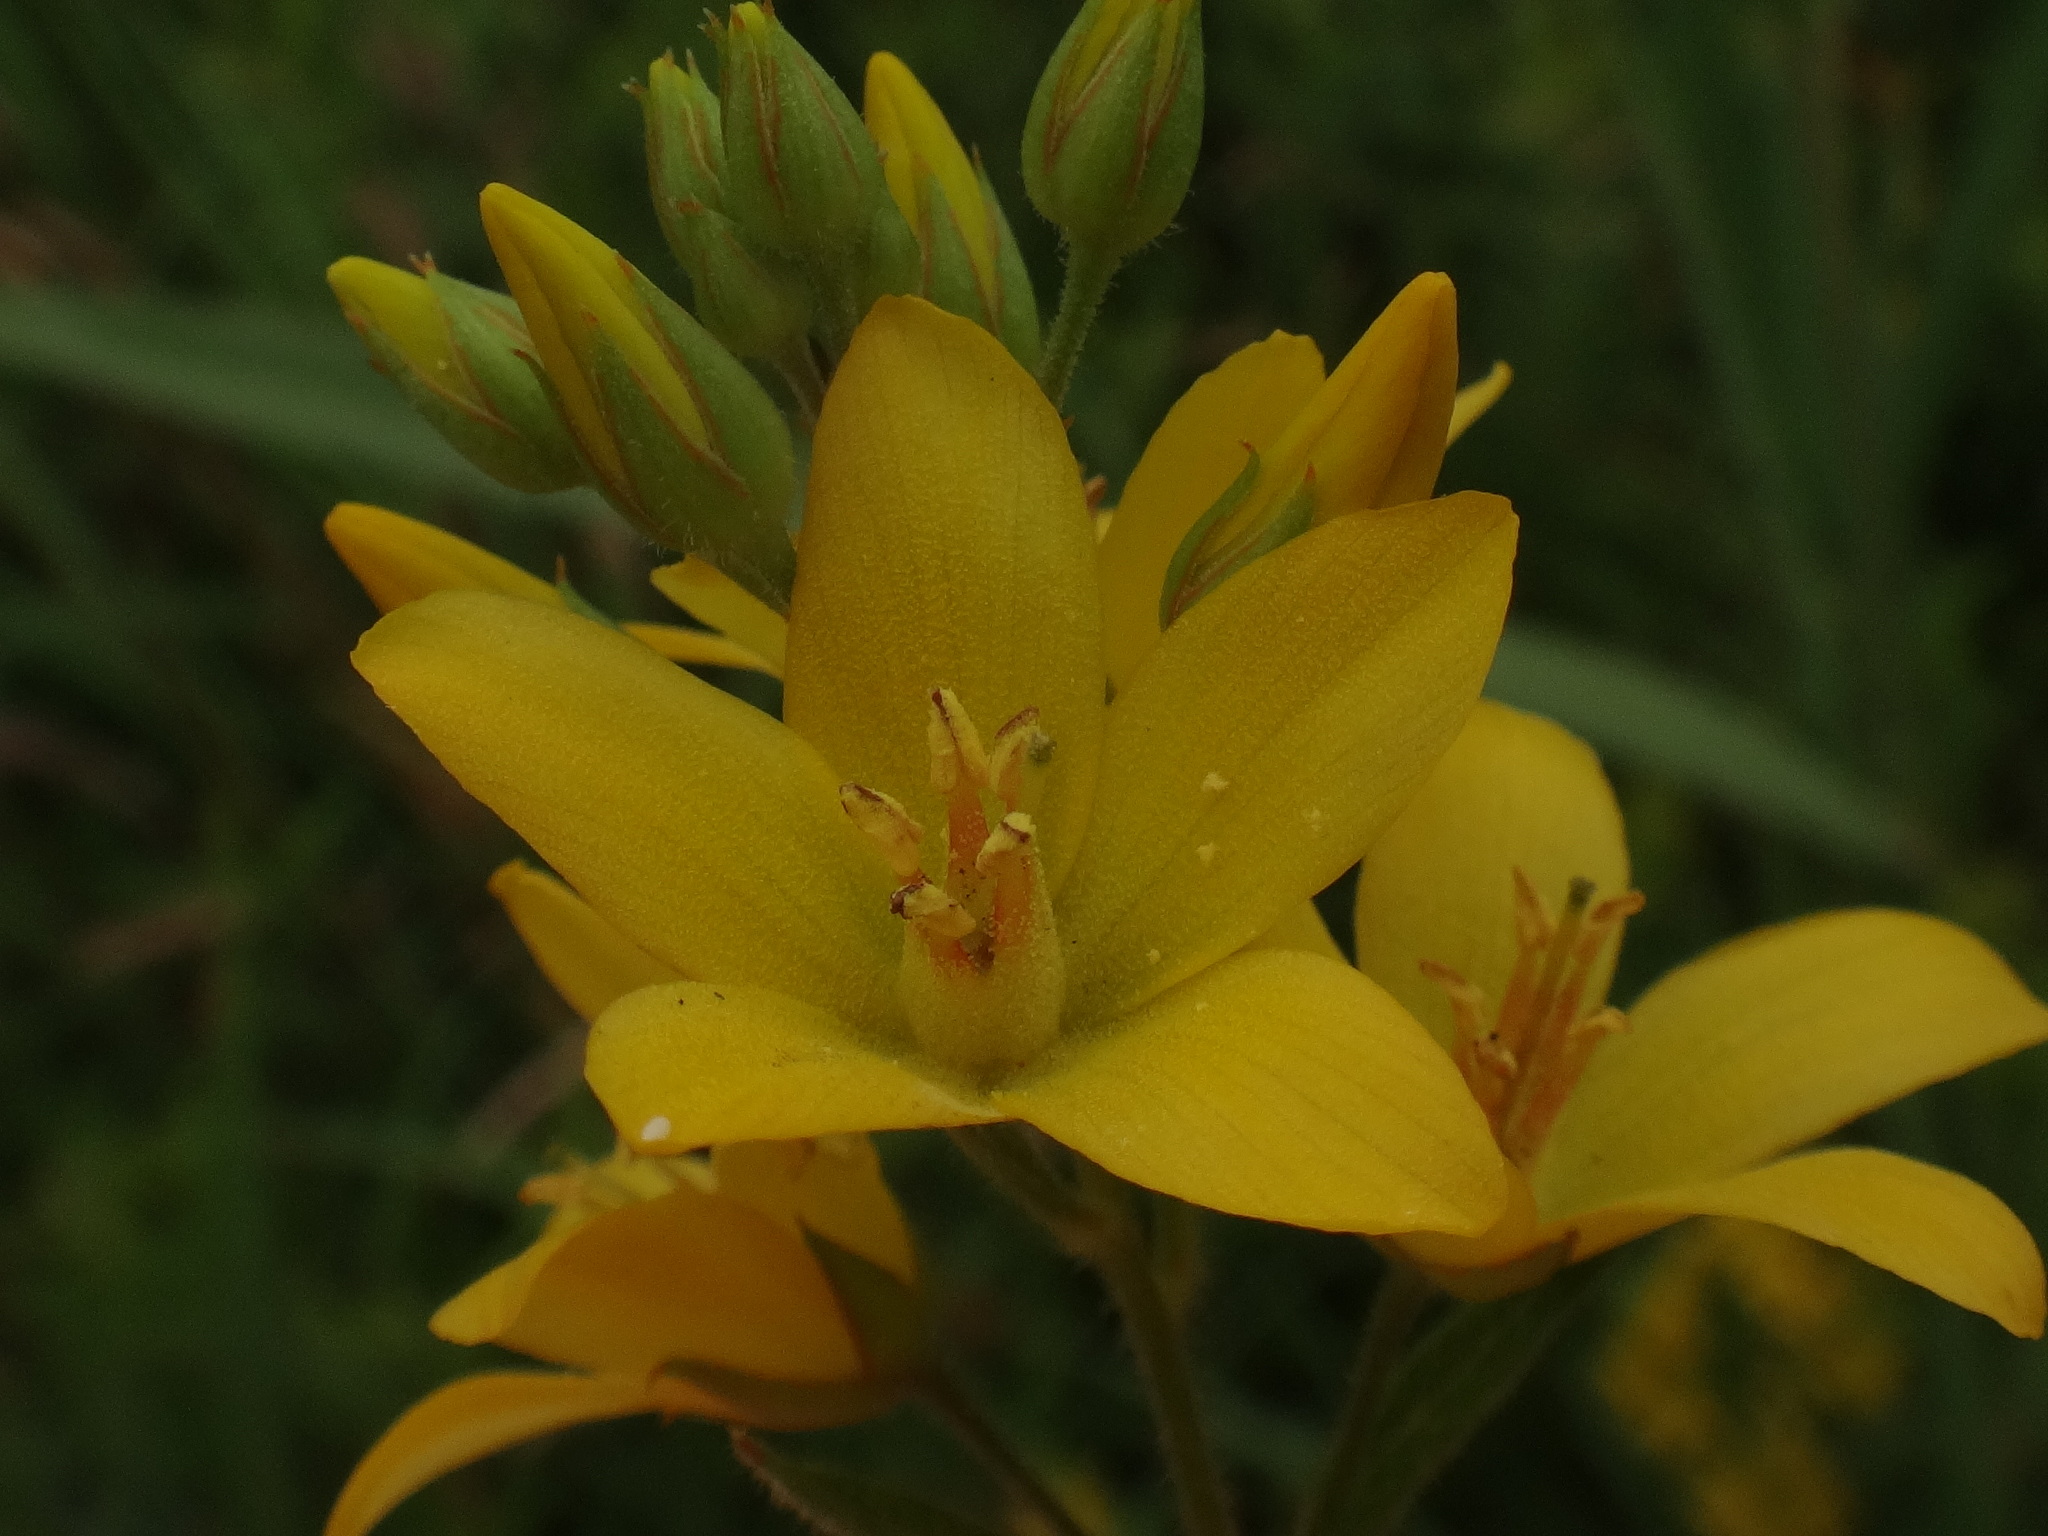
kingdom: Plantae
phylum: Tracheophyta
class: Magnoliopsida
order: Ericales
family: Primulaceae
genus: Lysimachia
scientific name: Lysimachia vulgaris
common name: Yellow loosestrife
